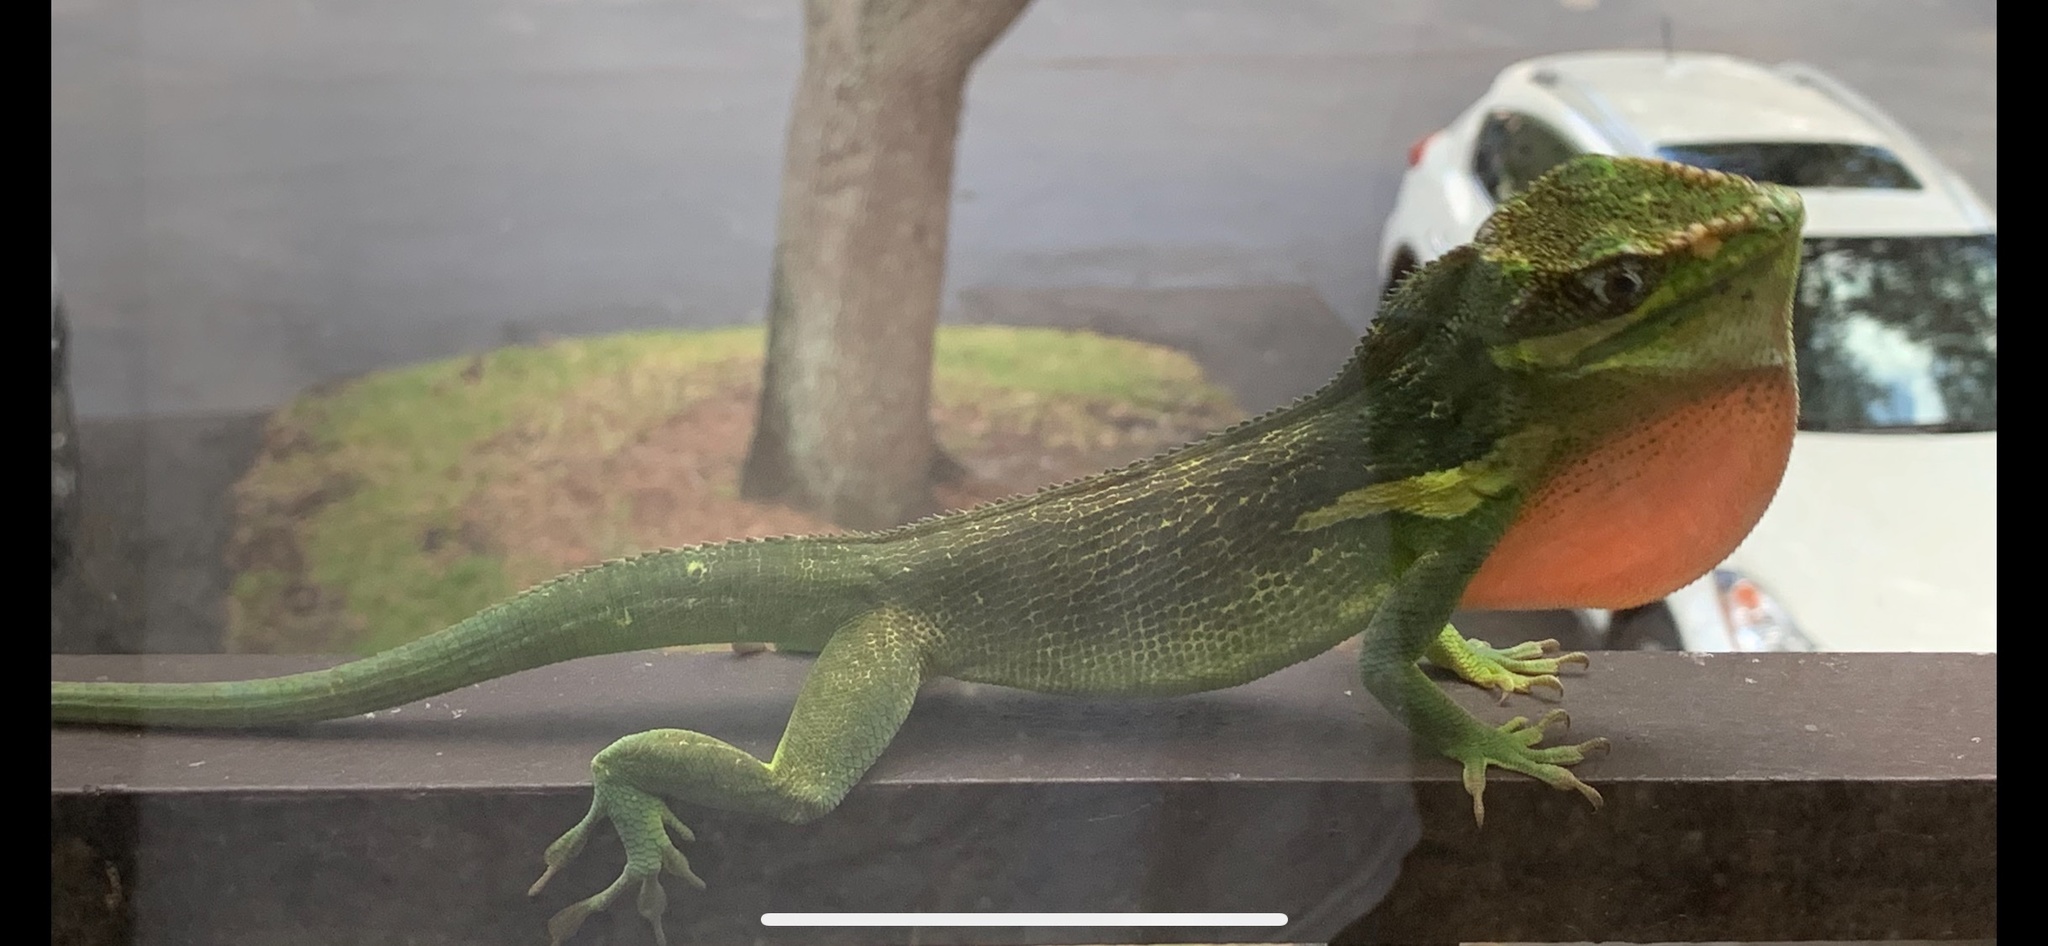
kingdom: Animalia
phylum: Chordata
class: Squamata
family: Dactyloidae
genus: Anolis
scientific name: Anolis equestris
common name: Knight anole
